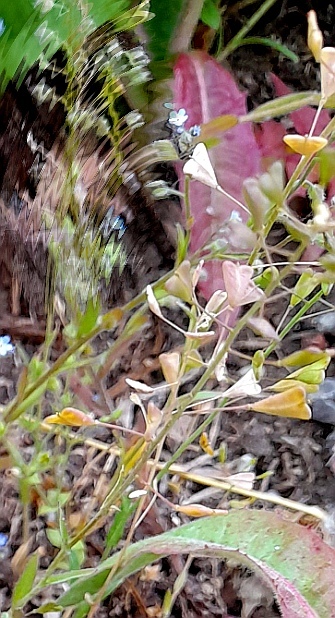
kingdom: Plantae
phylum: Tracheophyta
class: Magnoliopsida
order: Brassicales
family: Brassicaceae
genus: Capsella
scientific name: Capsella bursa-pastoris
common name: Shepherd's purse
